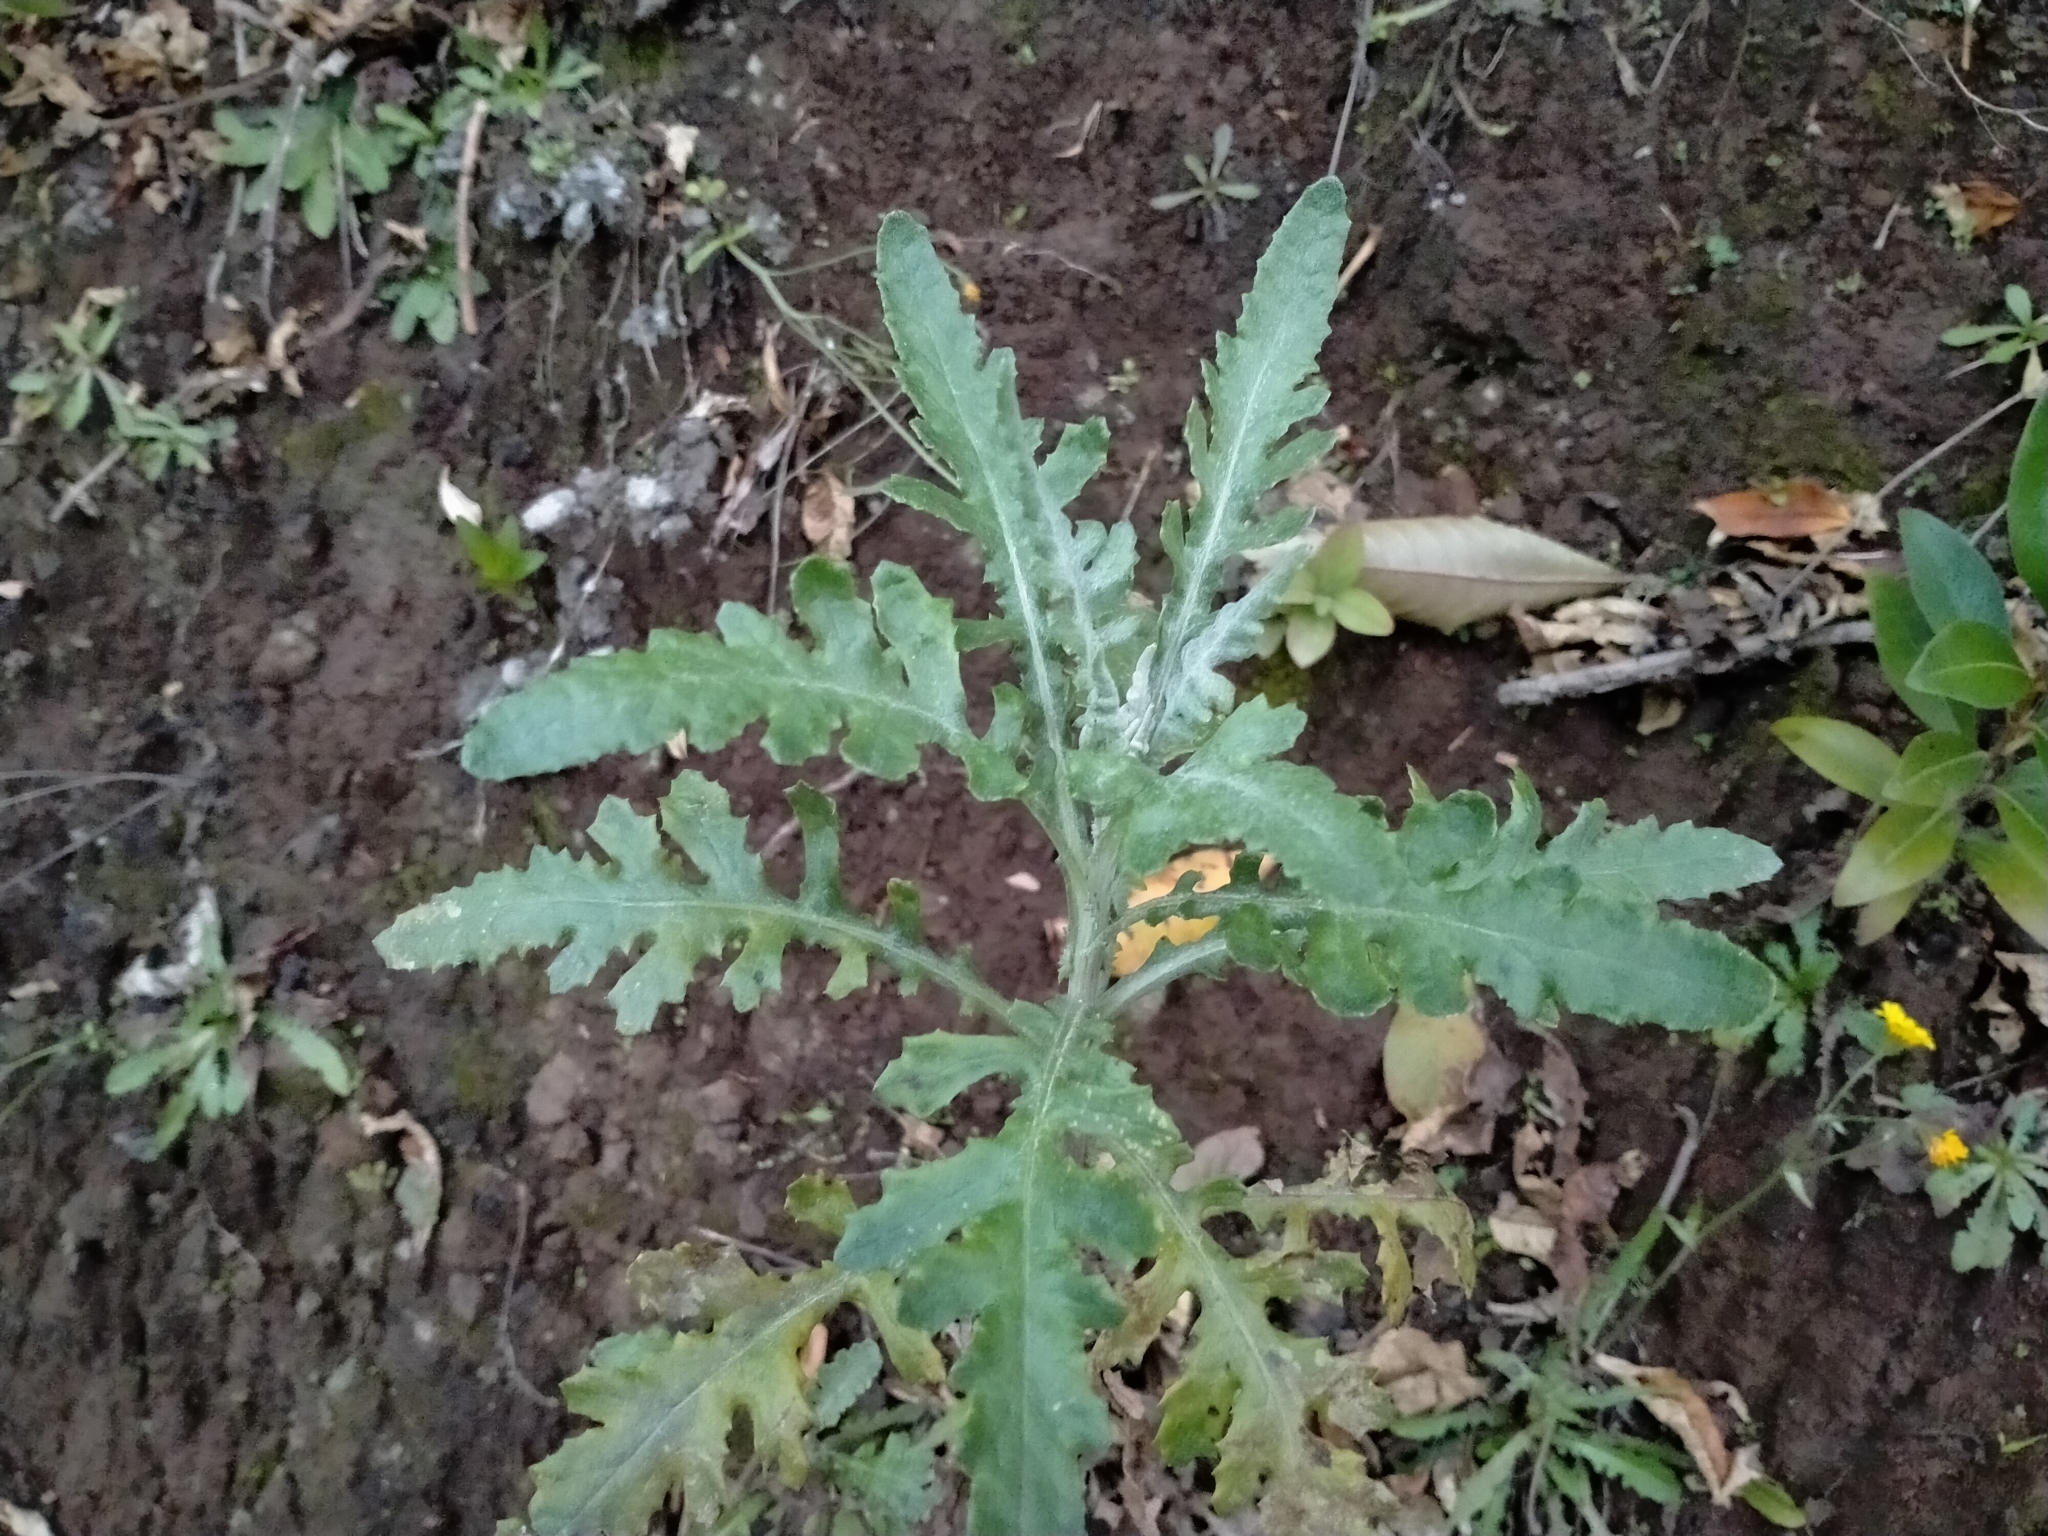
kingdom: Plantae
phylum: Tracheophyta
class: Magnoliopsida
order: Asterales
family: Asteraceae
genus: Senecio
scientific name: Senecio glomeratus
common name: Cutleaf burnweed
